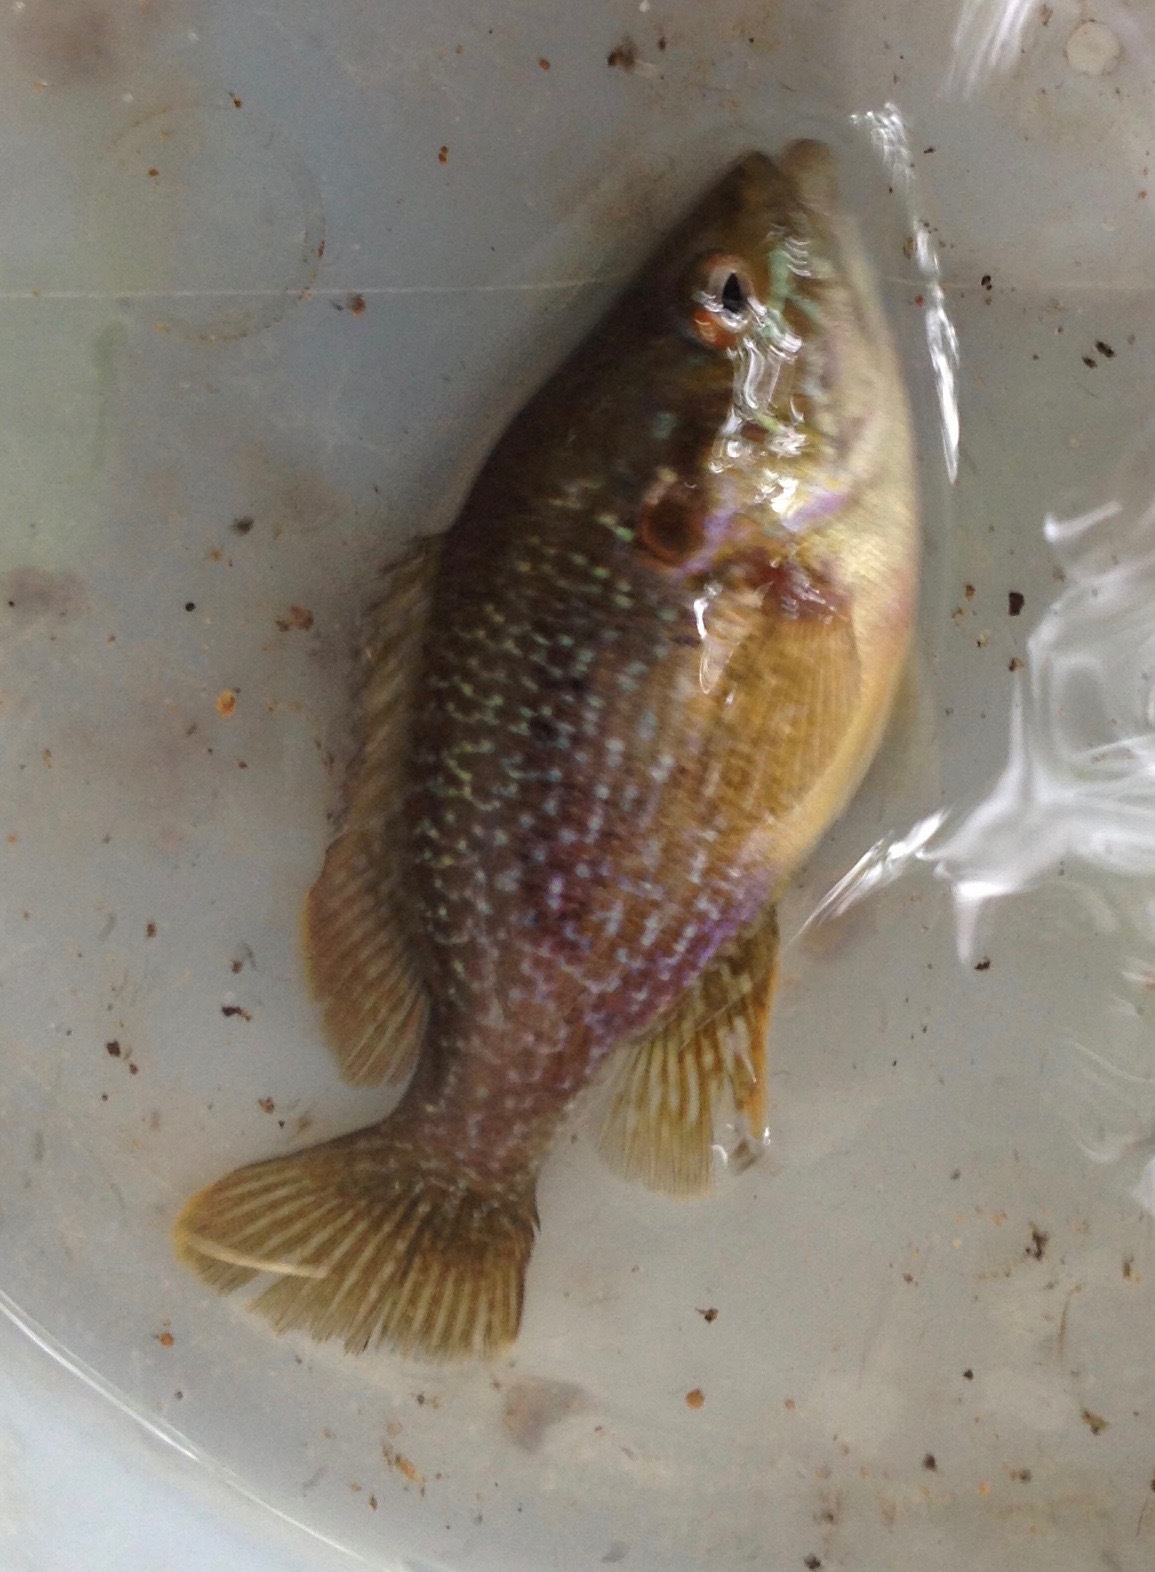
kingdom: Animalia
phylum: Chordata
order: Perciformes
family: Centrarchidae
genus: Lepomis
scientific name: Lepomis cyanellus
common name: Green sunfish
